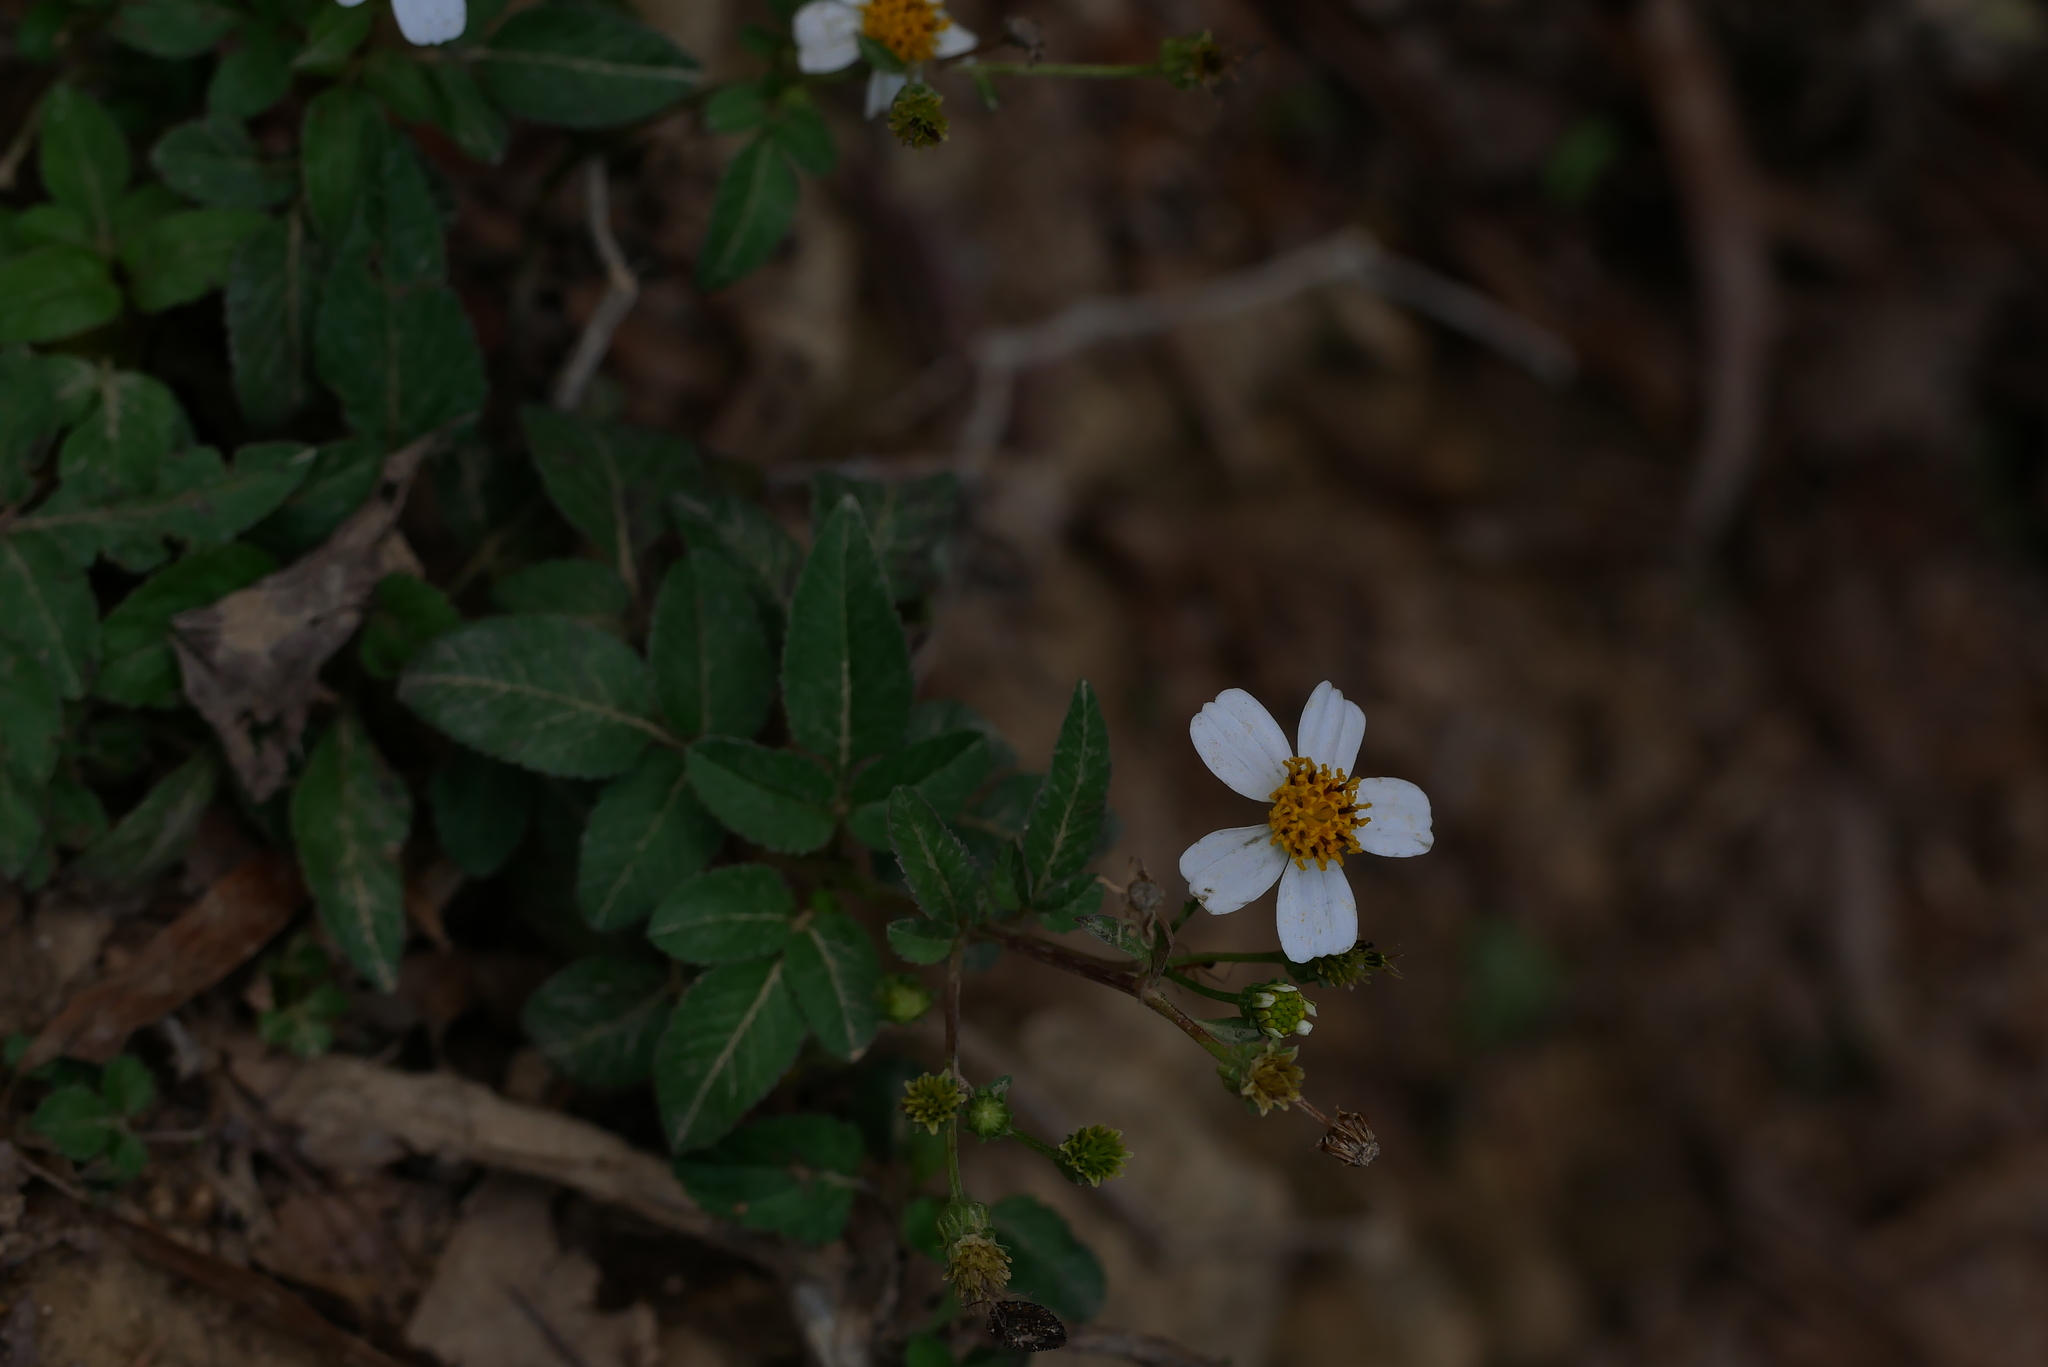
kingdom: Plantae
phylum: Tracheophyta
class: Magnoliopsida
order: Asterales
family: Asteraceae
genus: Bidens
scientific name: Bidens alba
